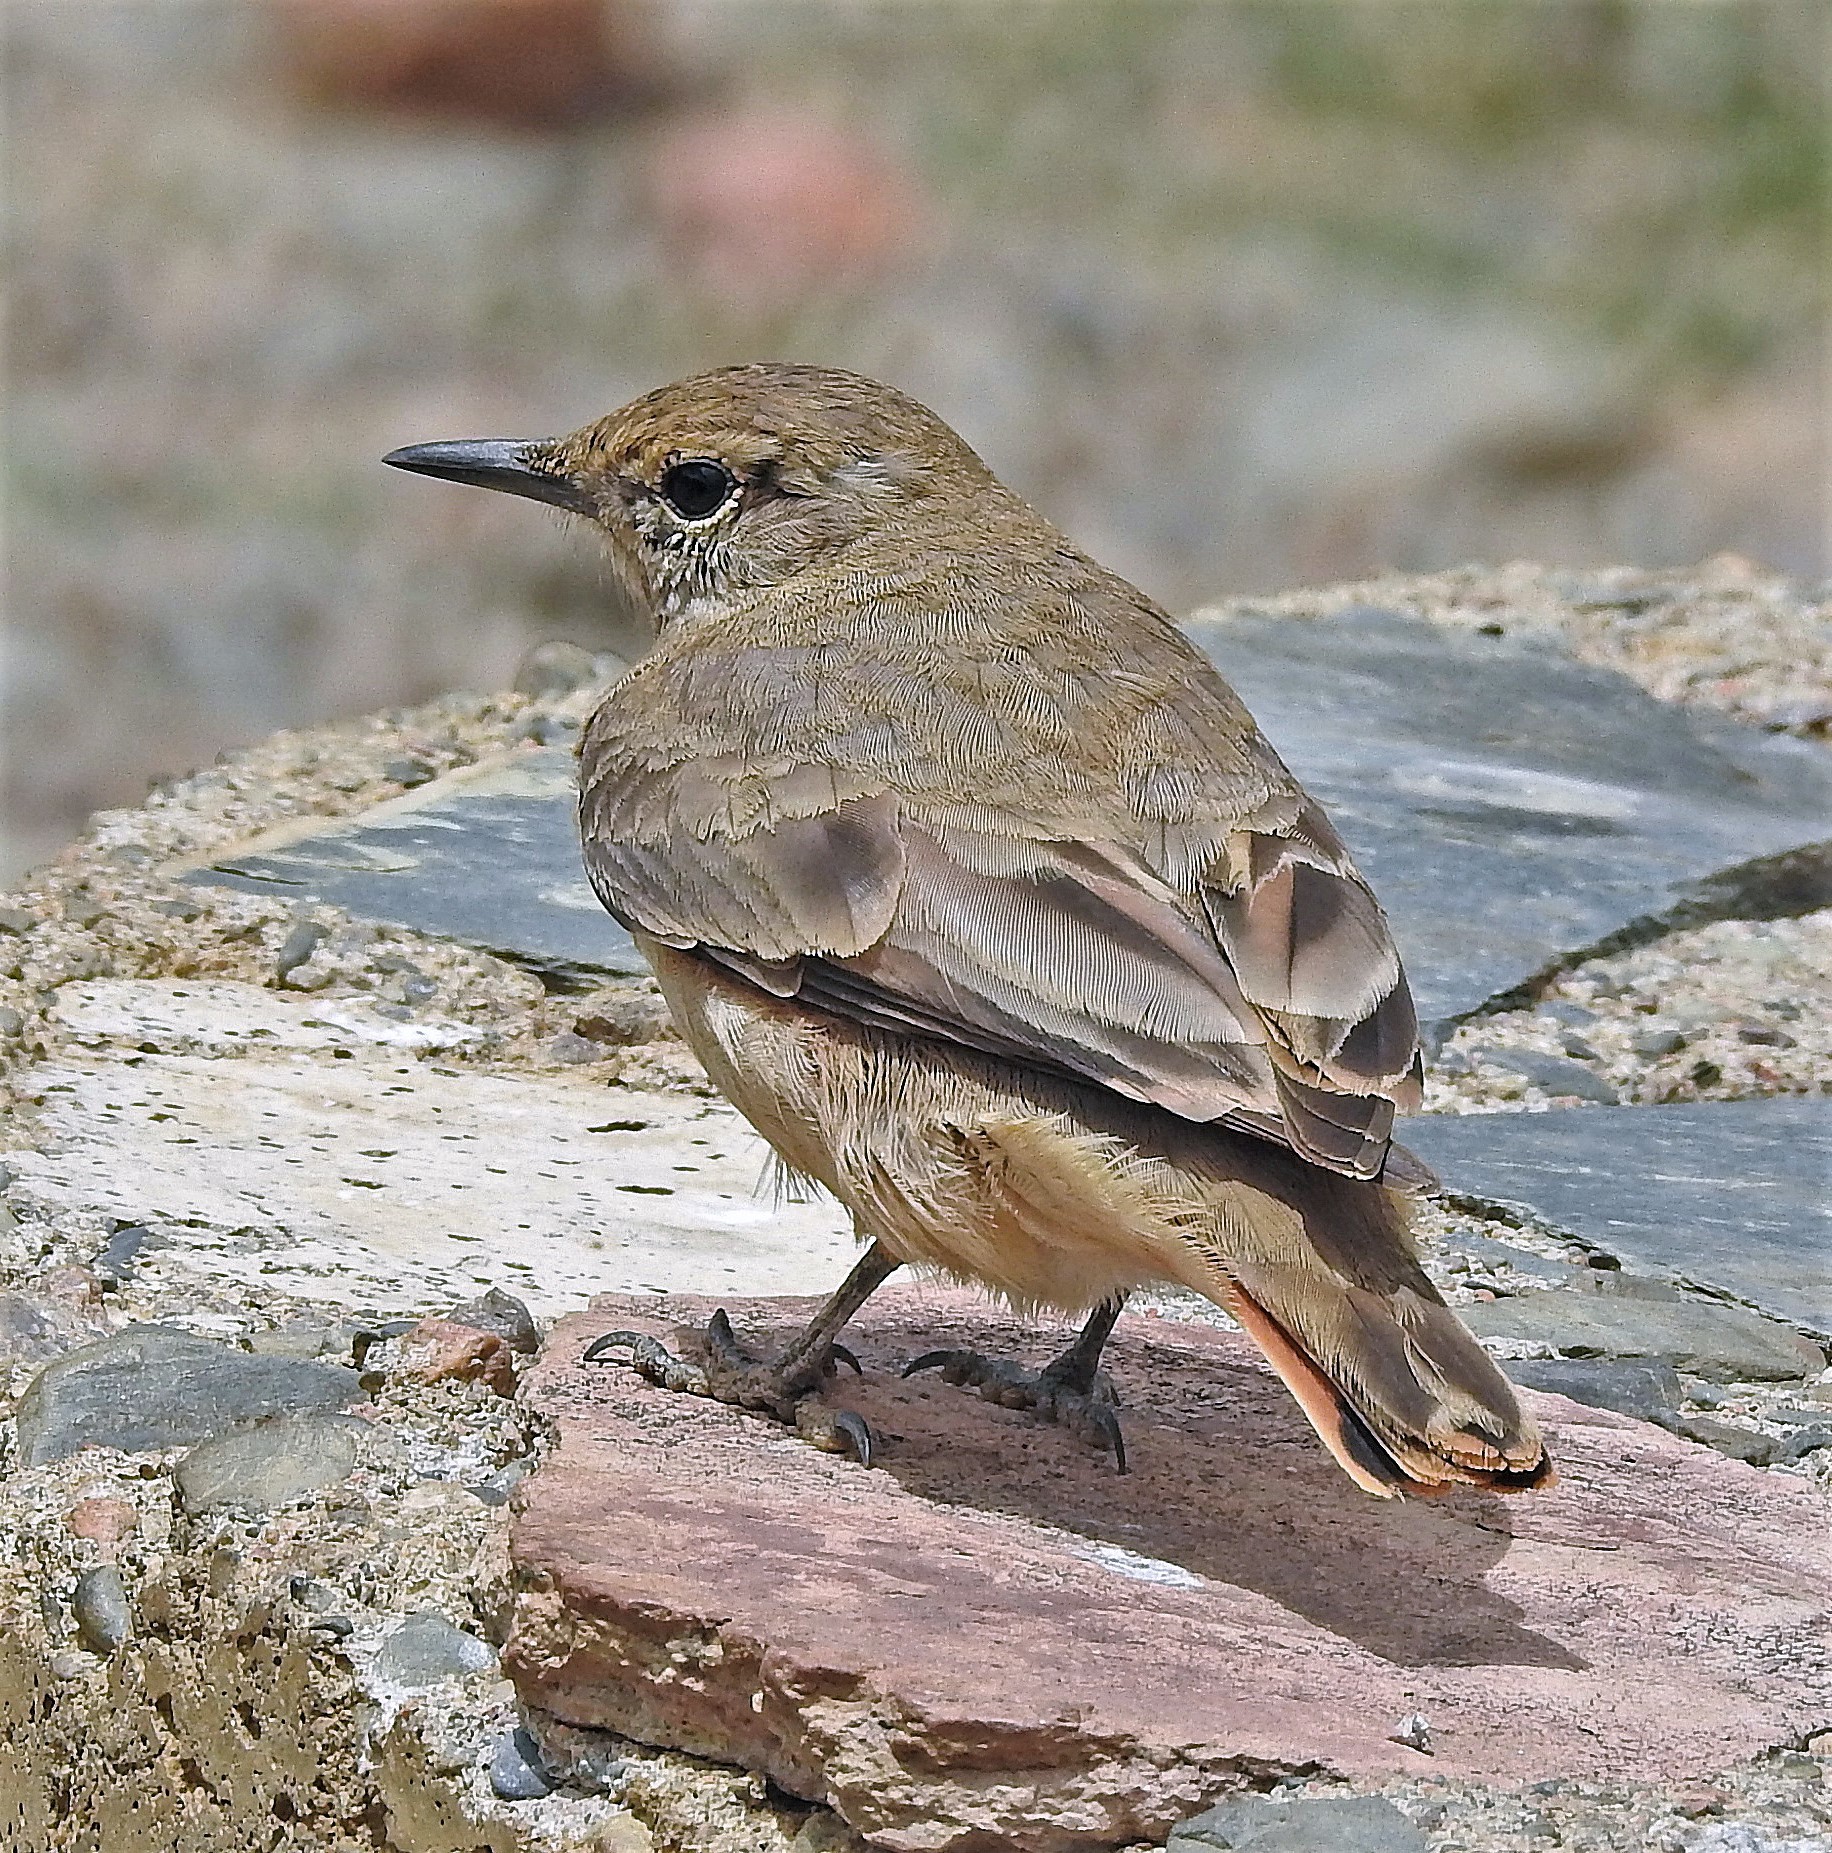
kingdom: Animalia
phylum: Chordata
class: Aves
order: Passeriformes
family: Furnariidae
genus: Geositta
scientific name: Geositta rufipennis
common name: Rufous-banded miner
